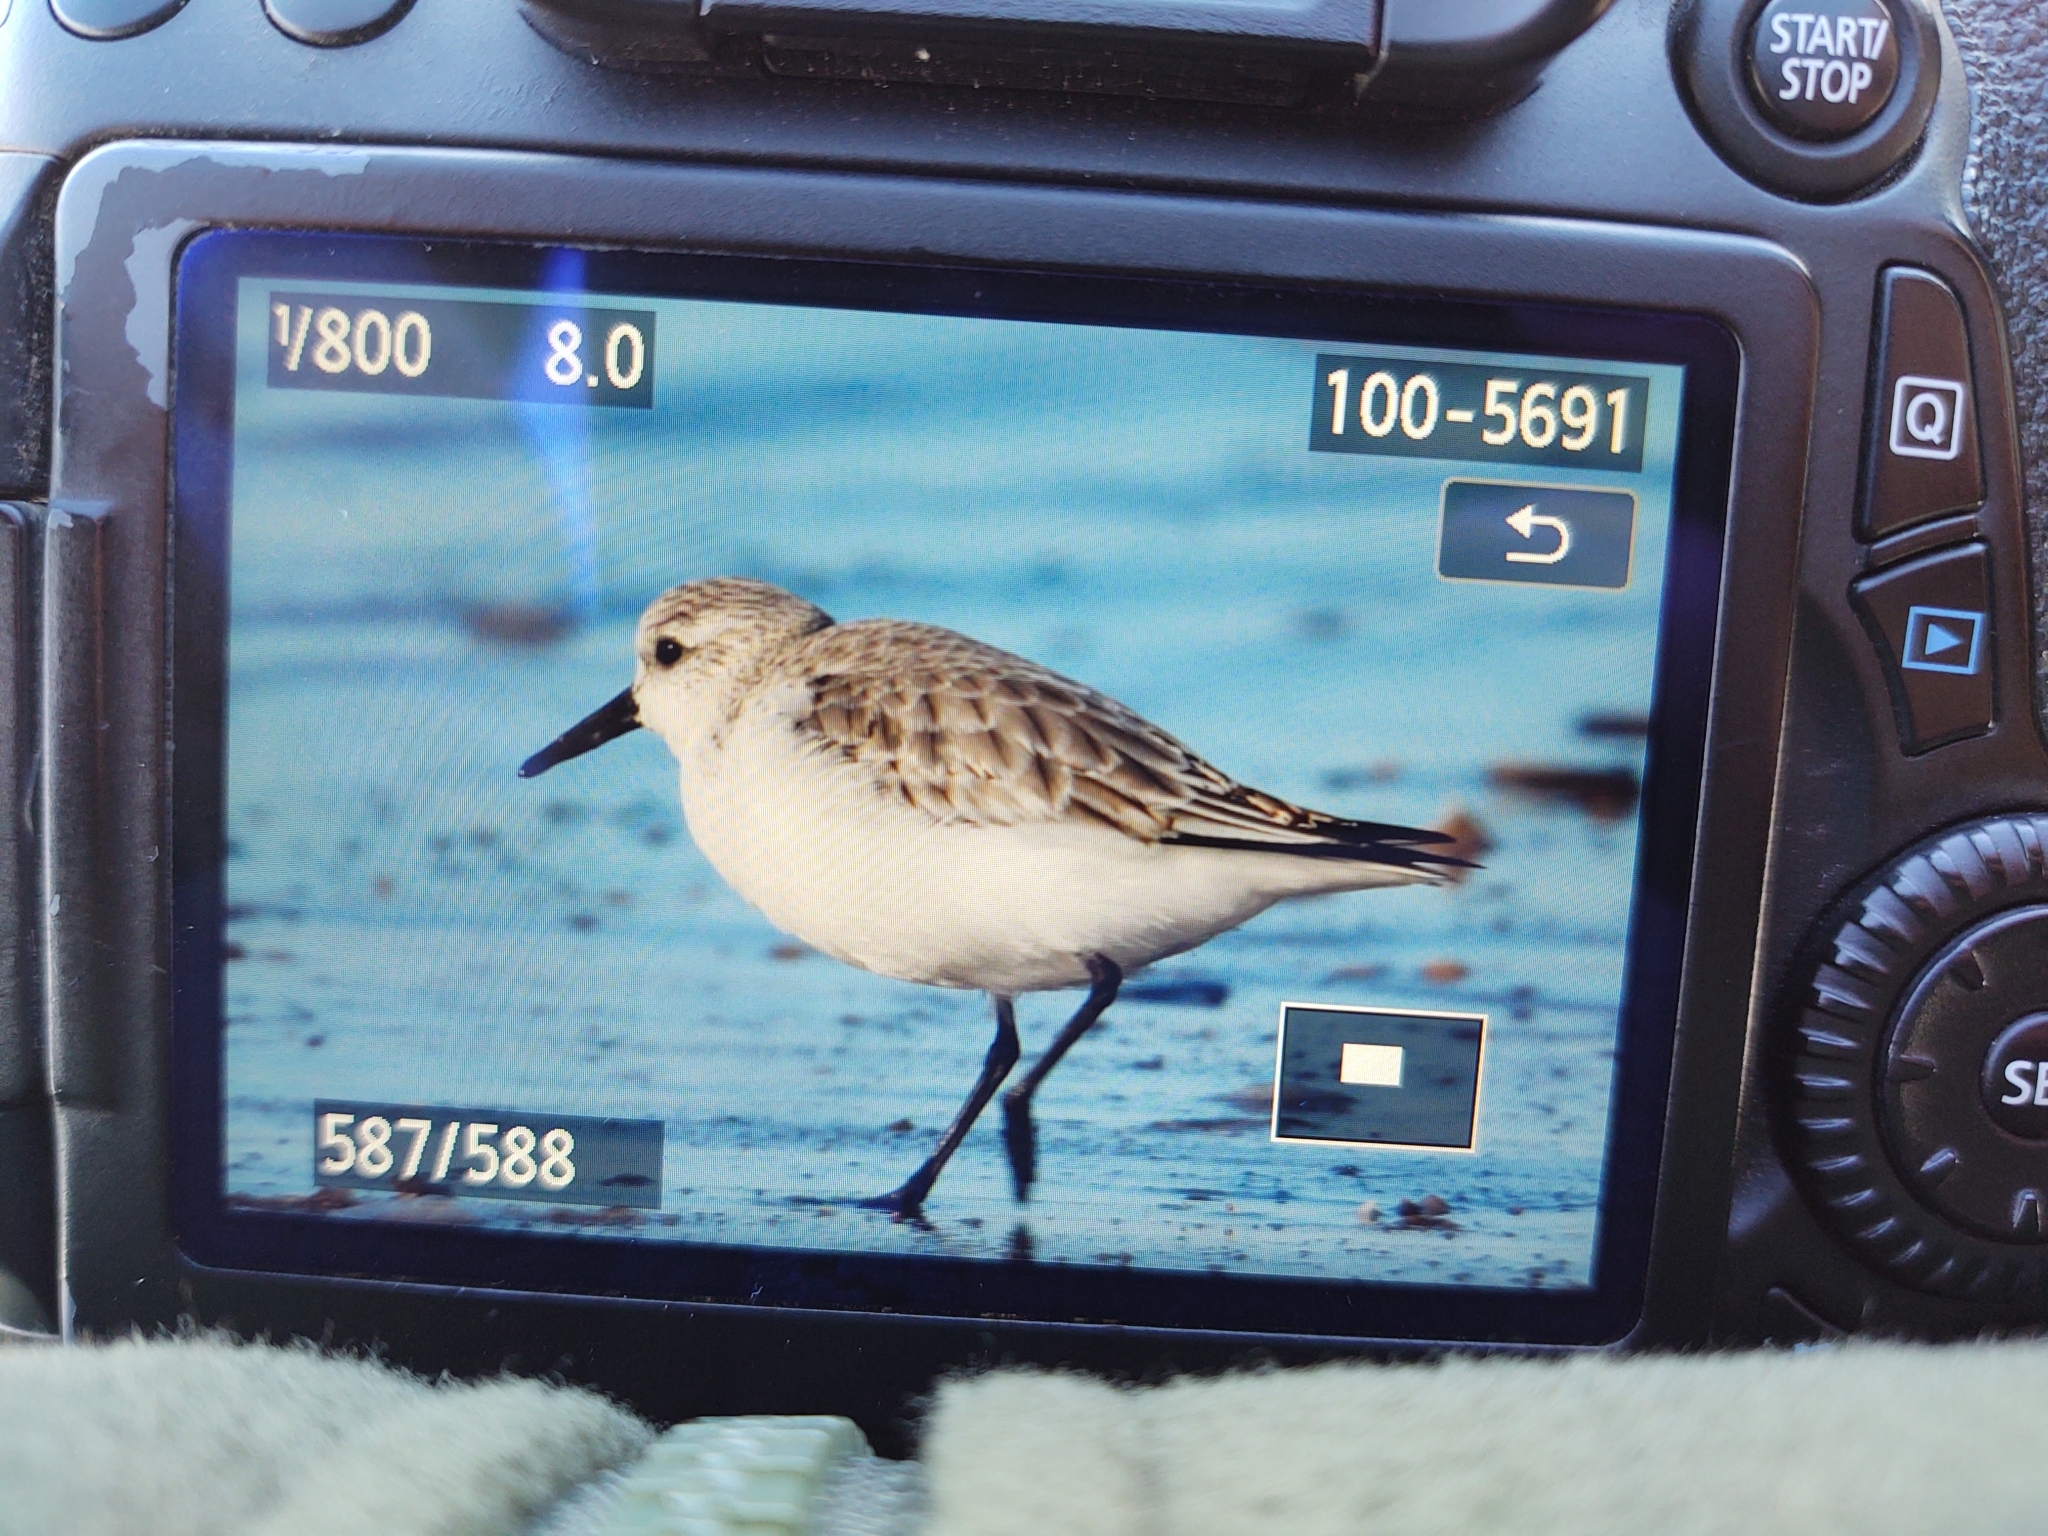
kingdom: Animalia
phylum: Chordata
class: Aves
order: Charadriiformes
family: Scolopacidae
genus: Calidris
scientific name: Calidris alba
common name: Sanderling
